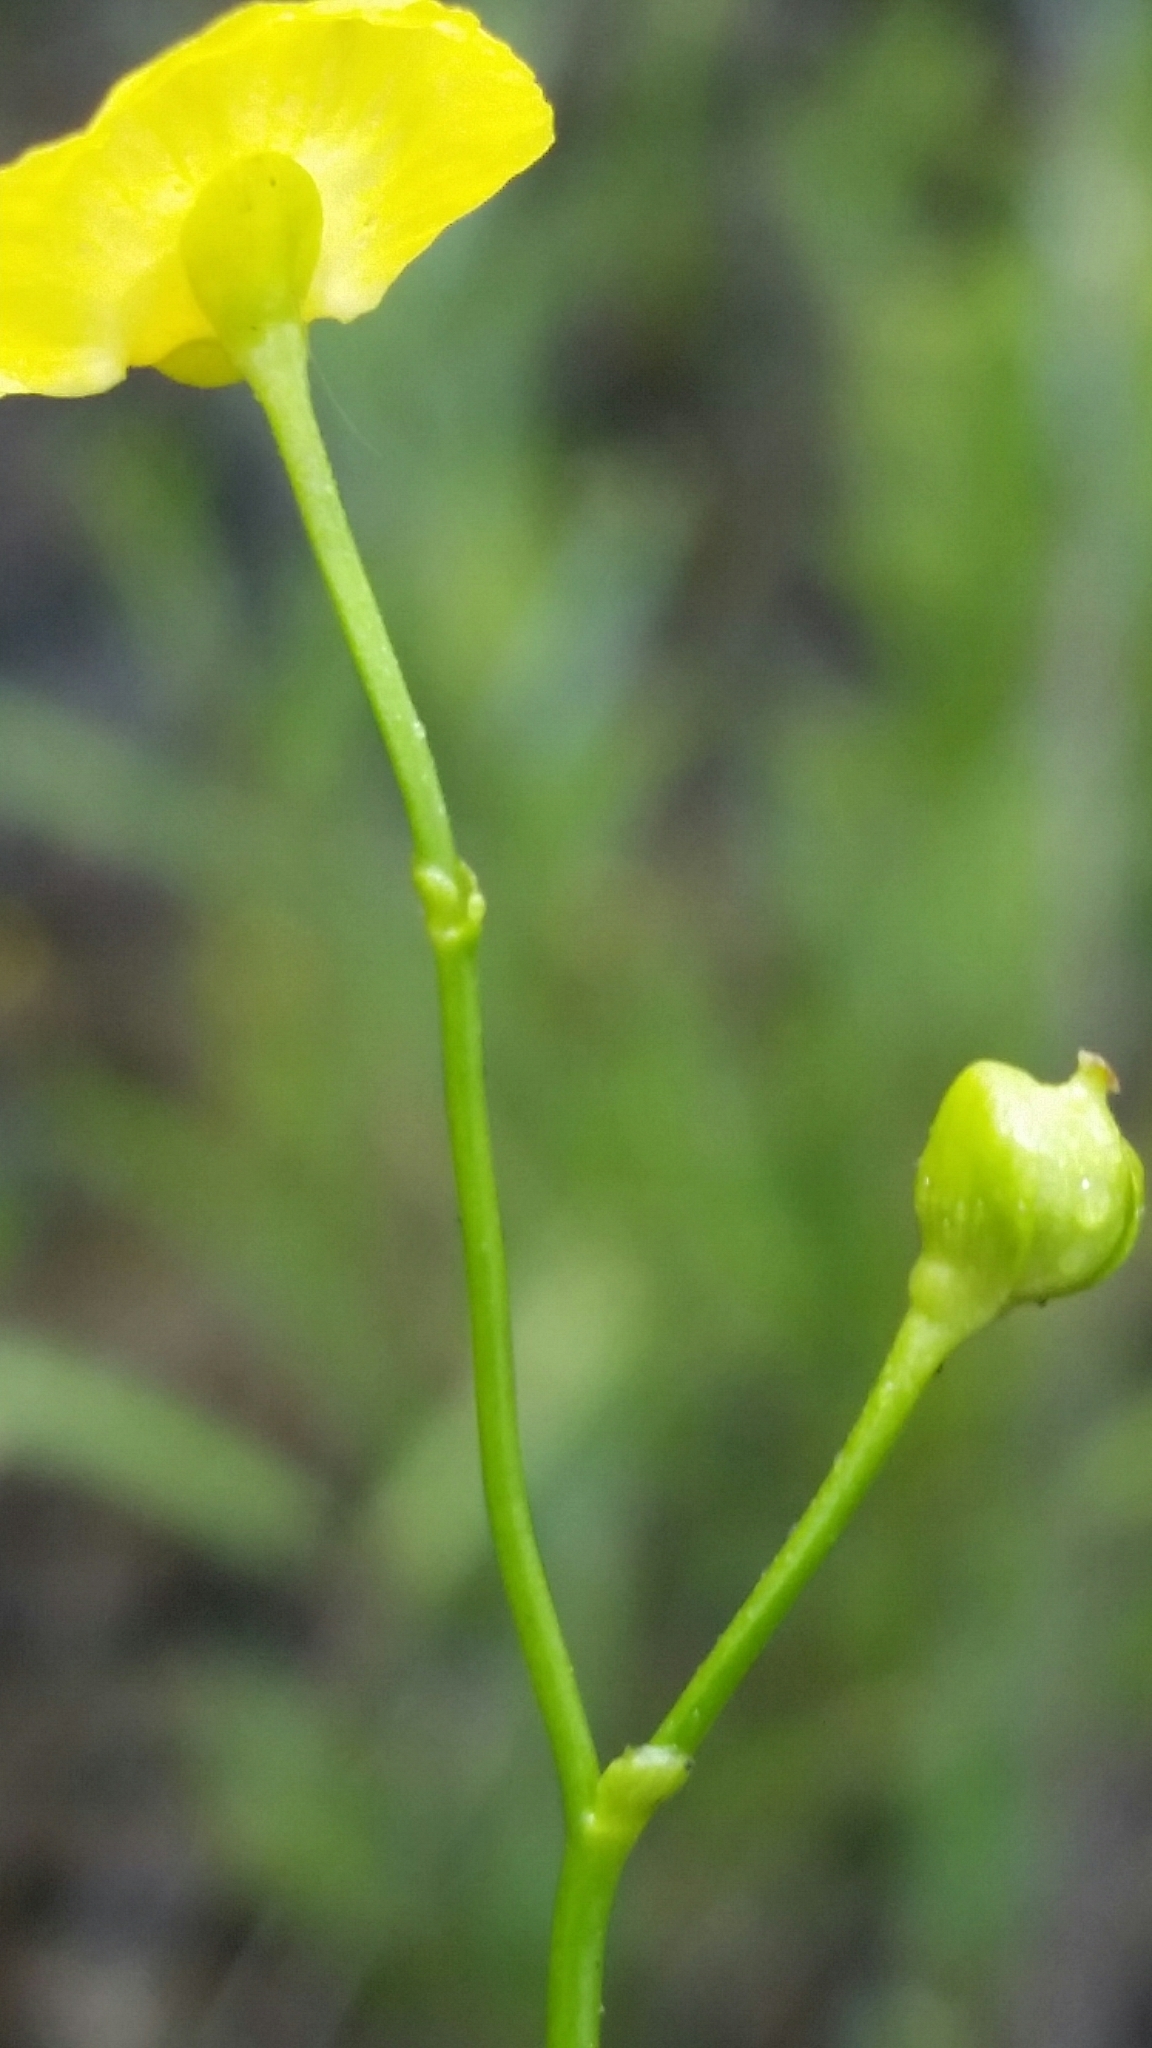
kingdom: Plantae
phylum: Tracheophyta
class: Magnoliopsida
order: Lamiales
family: Lentibulariaceae
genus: Utricularia
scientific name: Utricularia gibba
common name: Humped bladderwort
